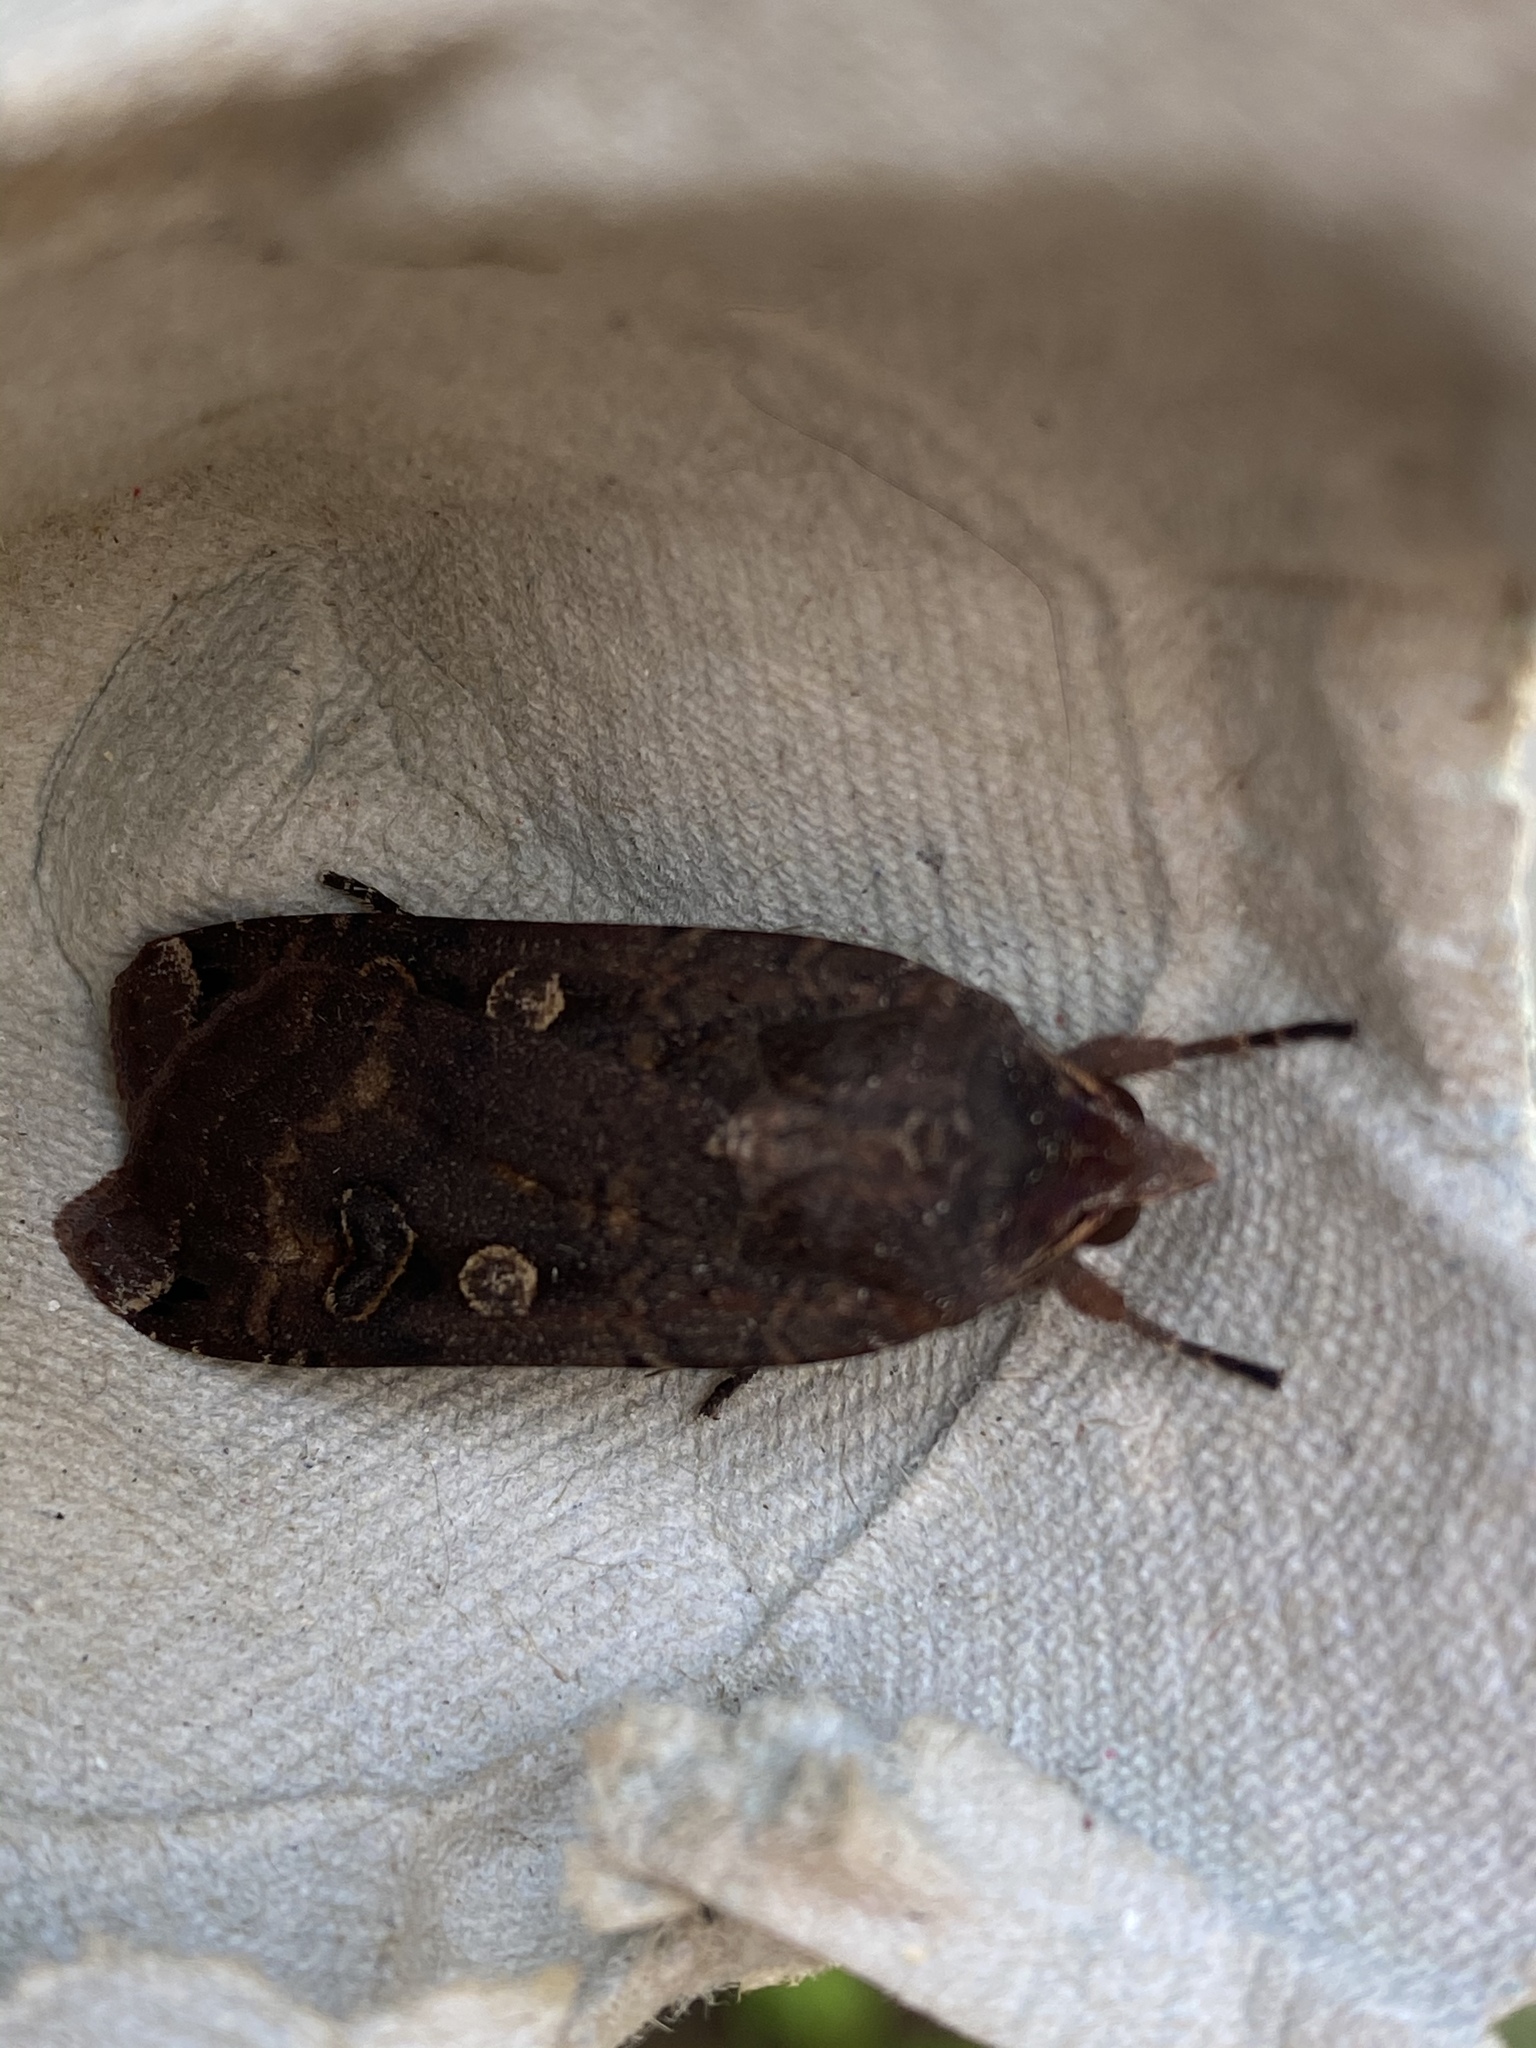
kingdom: Animalia
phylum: Arthropoda
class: Insecta
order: Lepidoptera
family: Noctuidae
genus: Noctua
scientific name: Noctua pronuba
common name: Large yellow underwing
